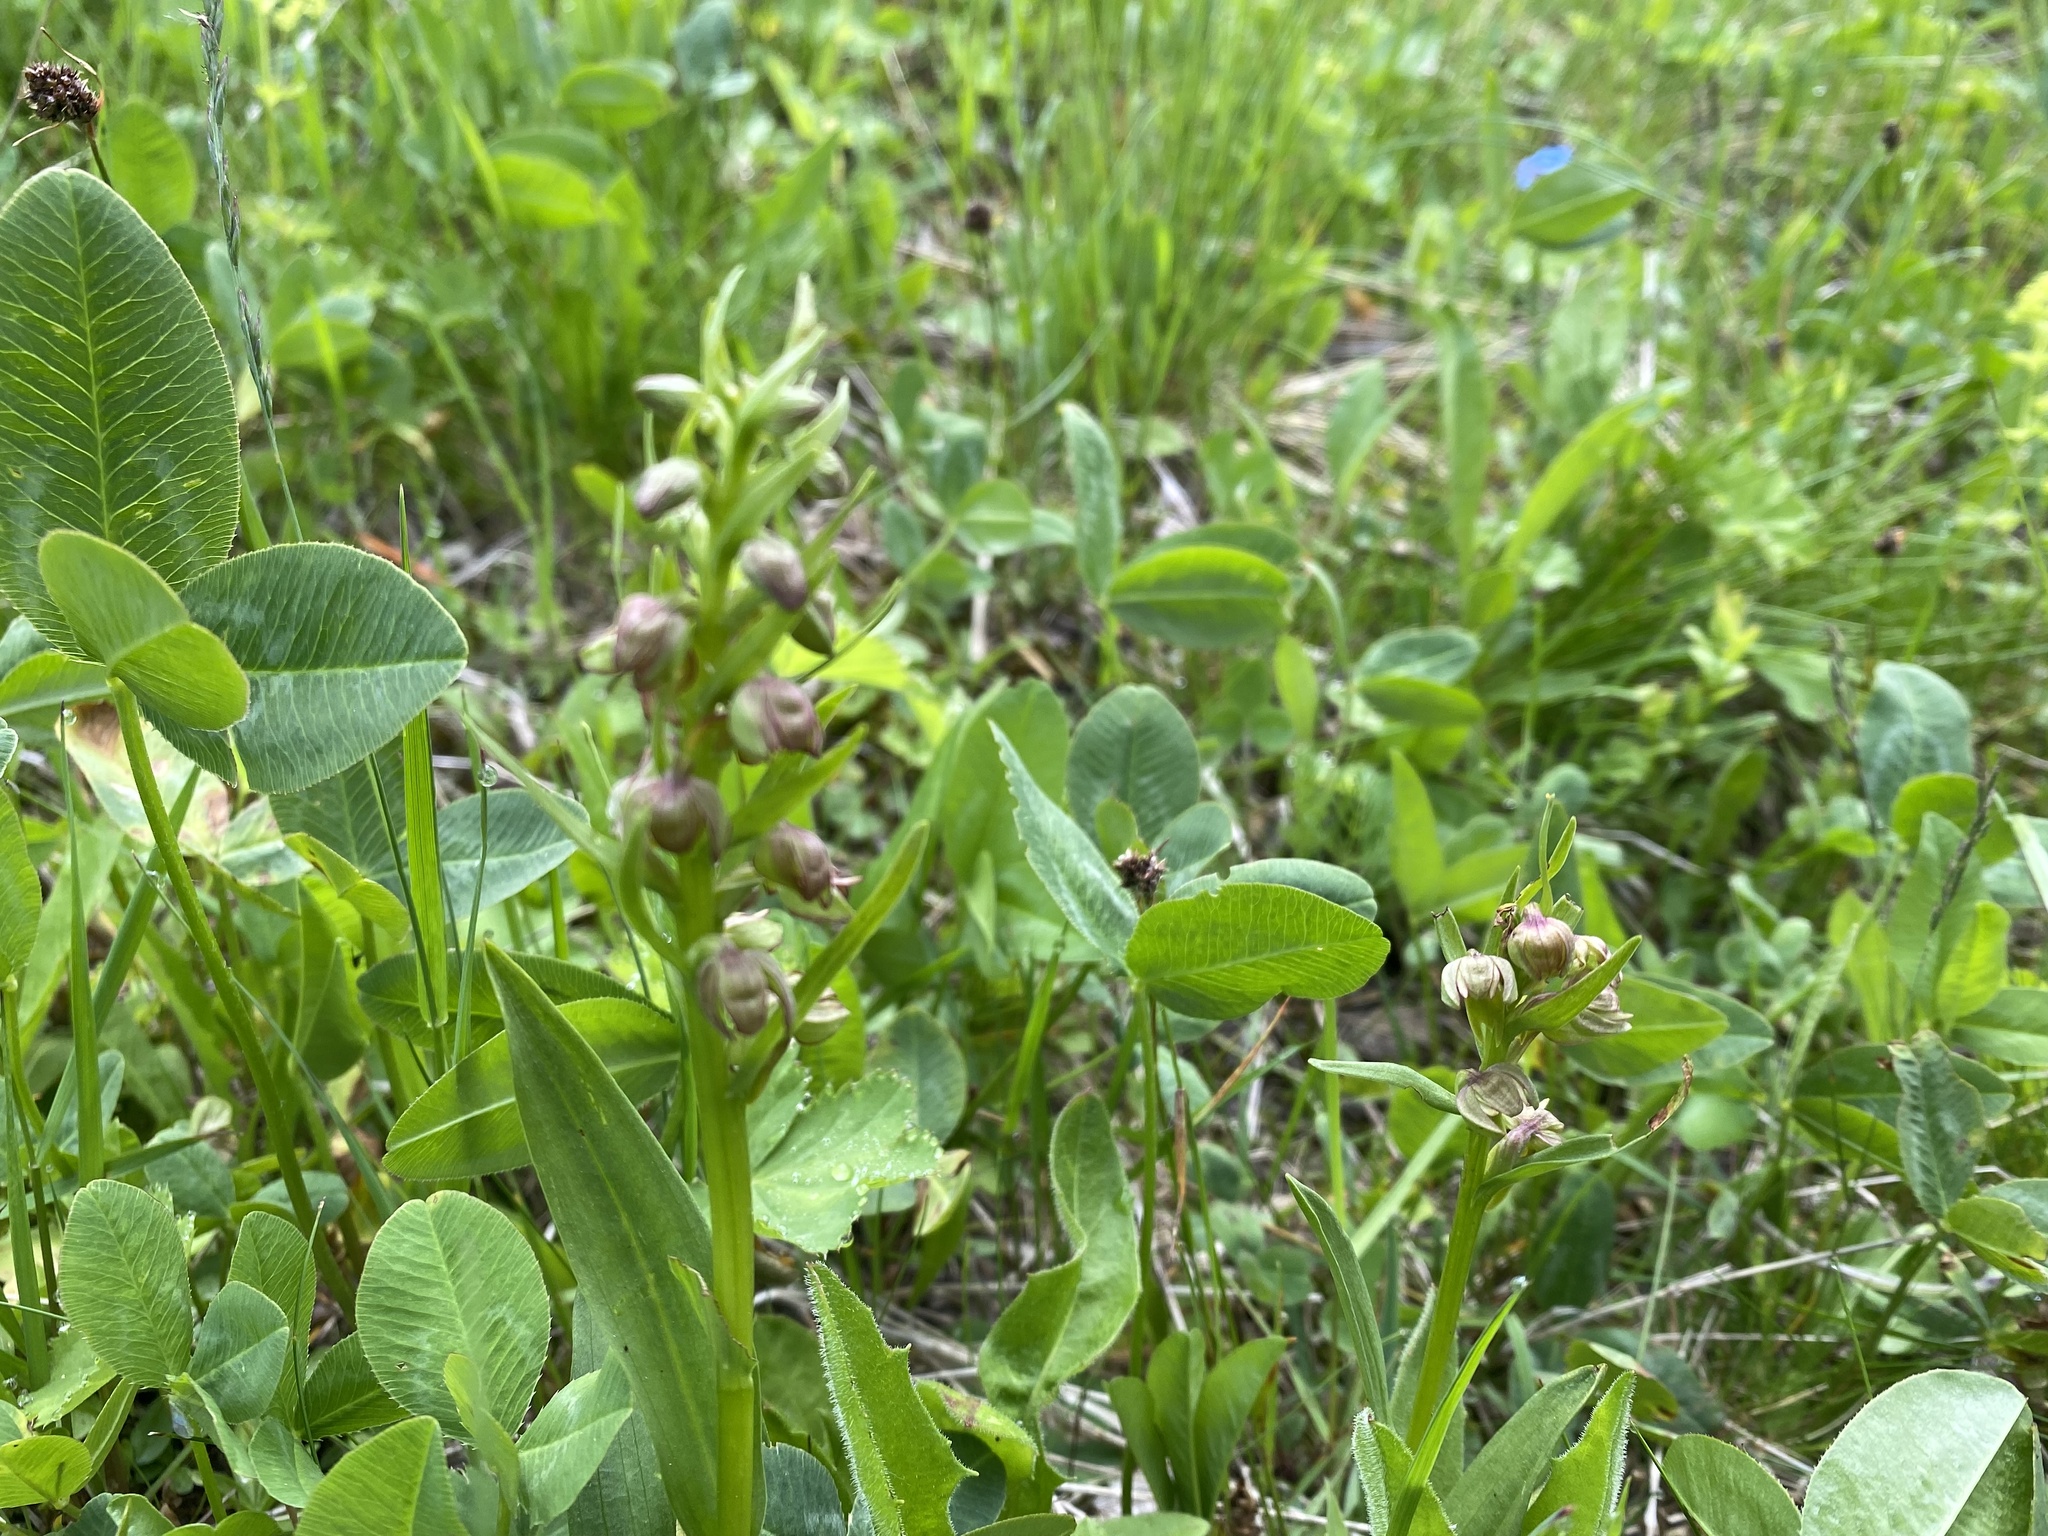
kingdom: Plantae
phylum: Tracheophyta
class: Liliopsida
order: Asparagales
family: Orchidaceae
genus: Dactylorhiza
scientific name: Dactylorhiza viridis
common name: Longbract frog orchid
